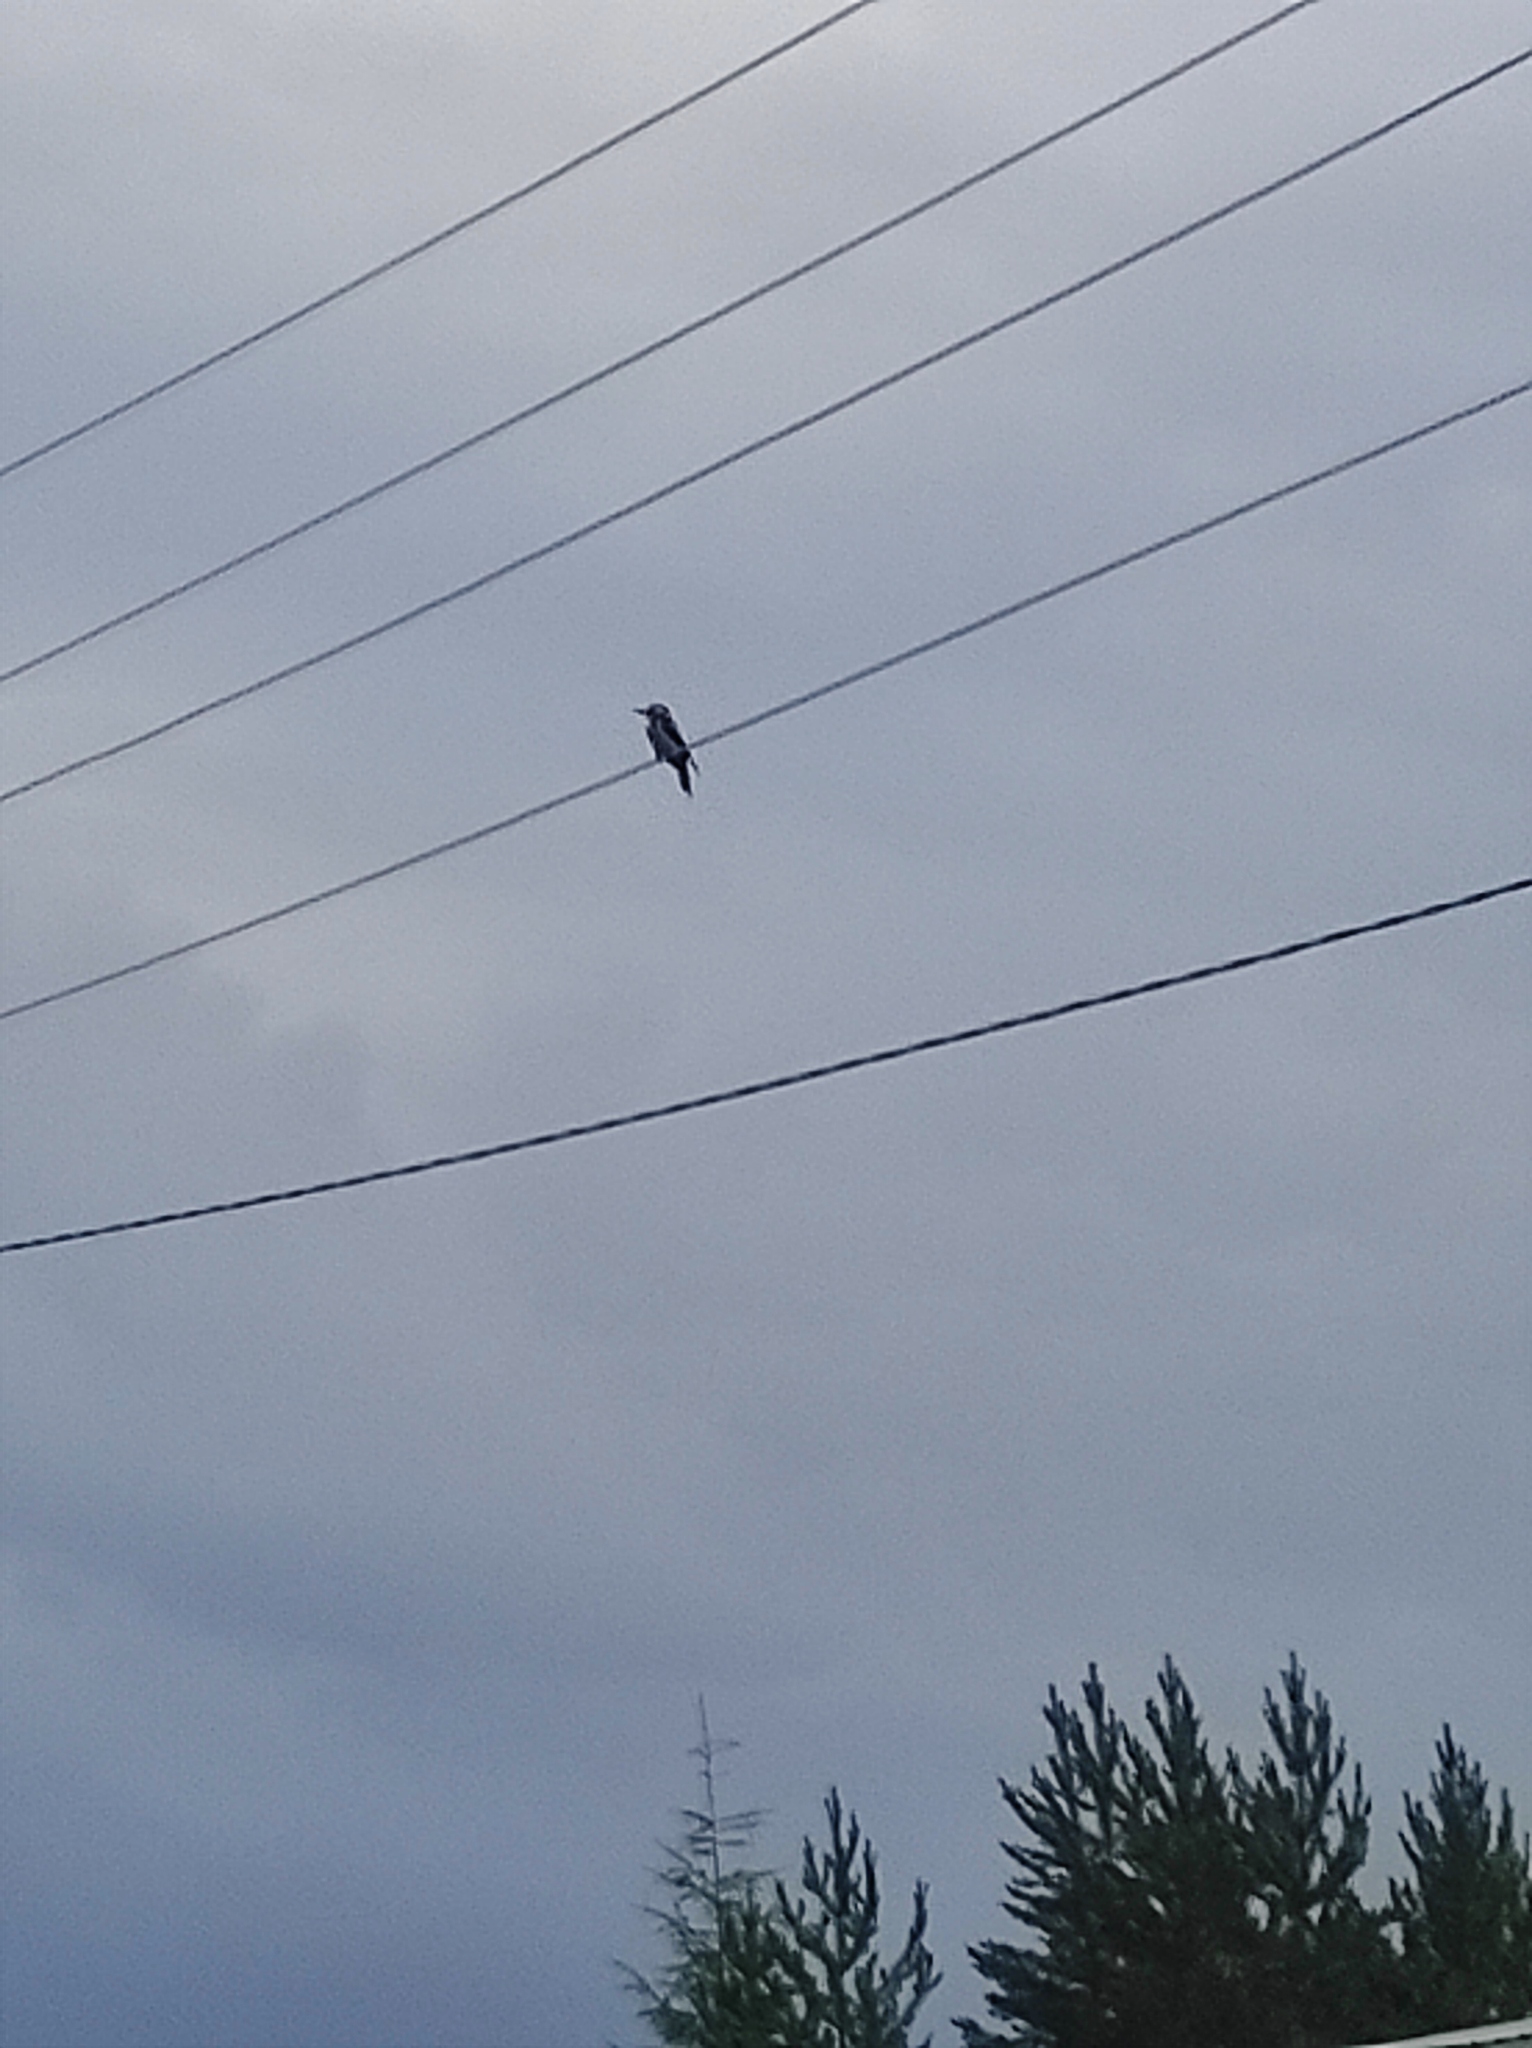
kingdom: Animalia
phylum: Chordata
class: Aves
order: Piciformes
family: Picidae
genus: Dendrocopos
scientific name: Dendrocopos major
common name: Great spotted woodpecker
